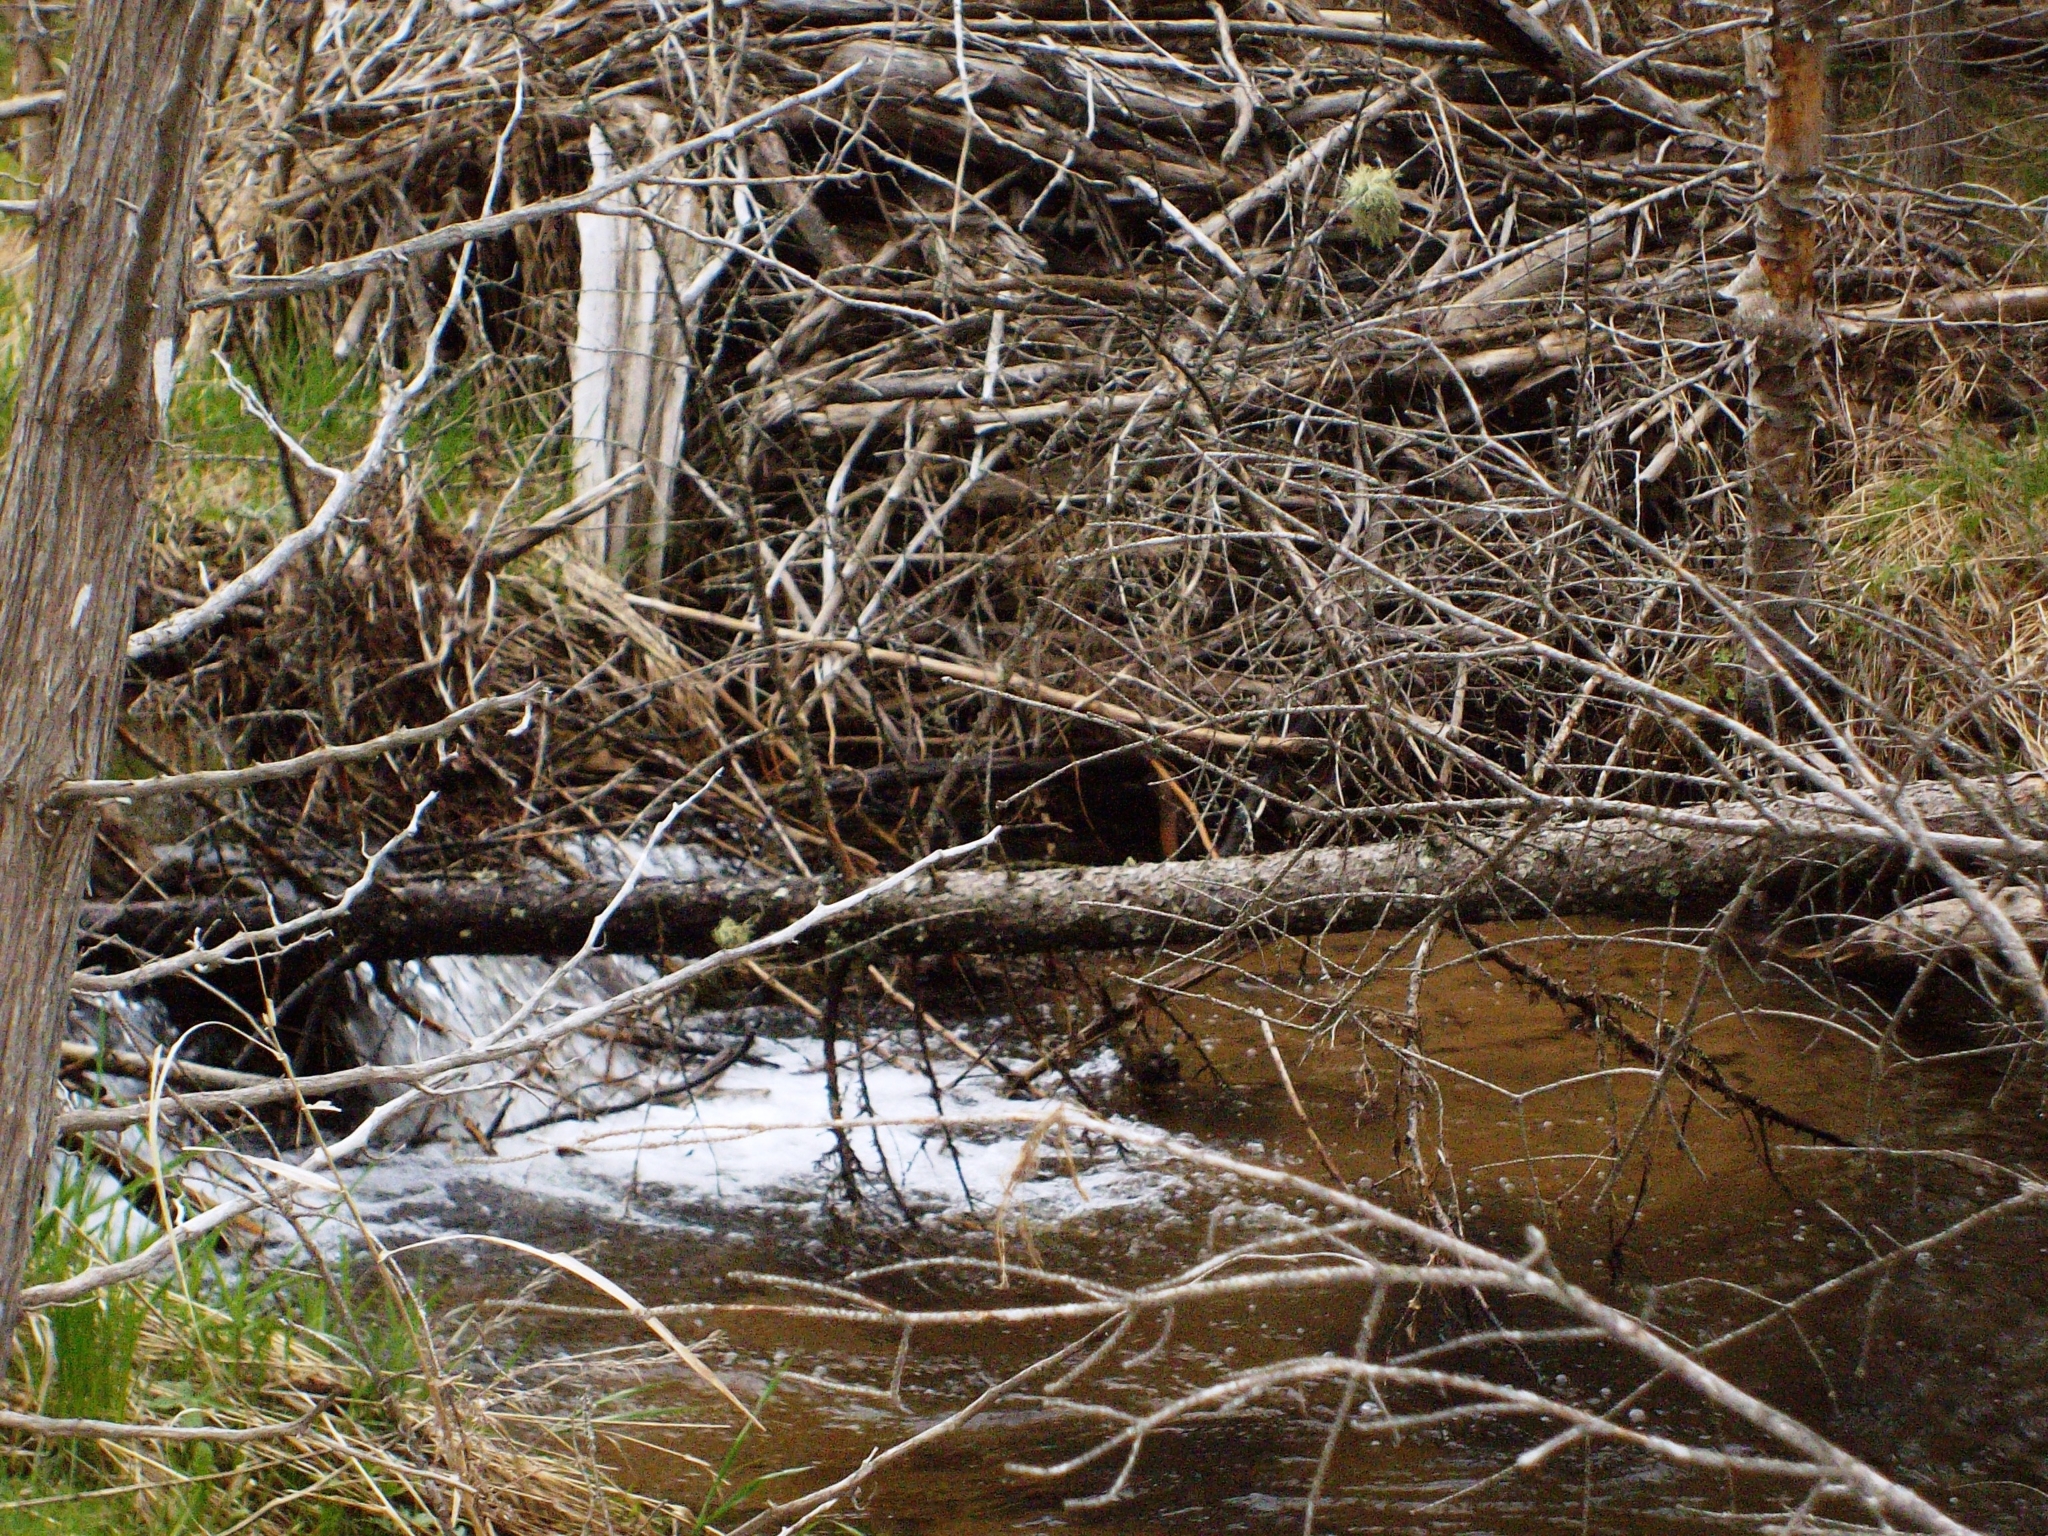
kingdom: Animalia
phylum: Chordata
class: Mammalia
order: Rodentia
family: Castoridae
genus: Castor
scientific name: Castor canadensis
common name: American beaver
